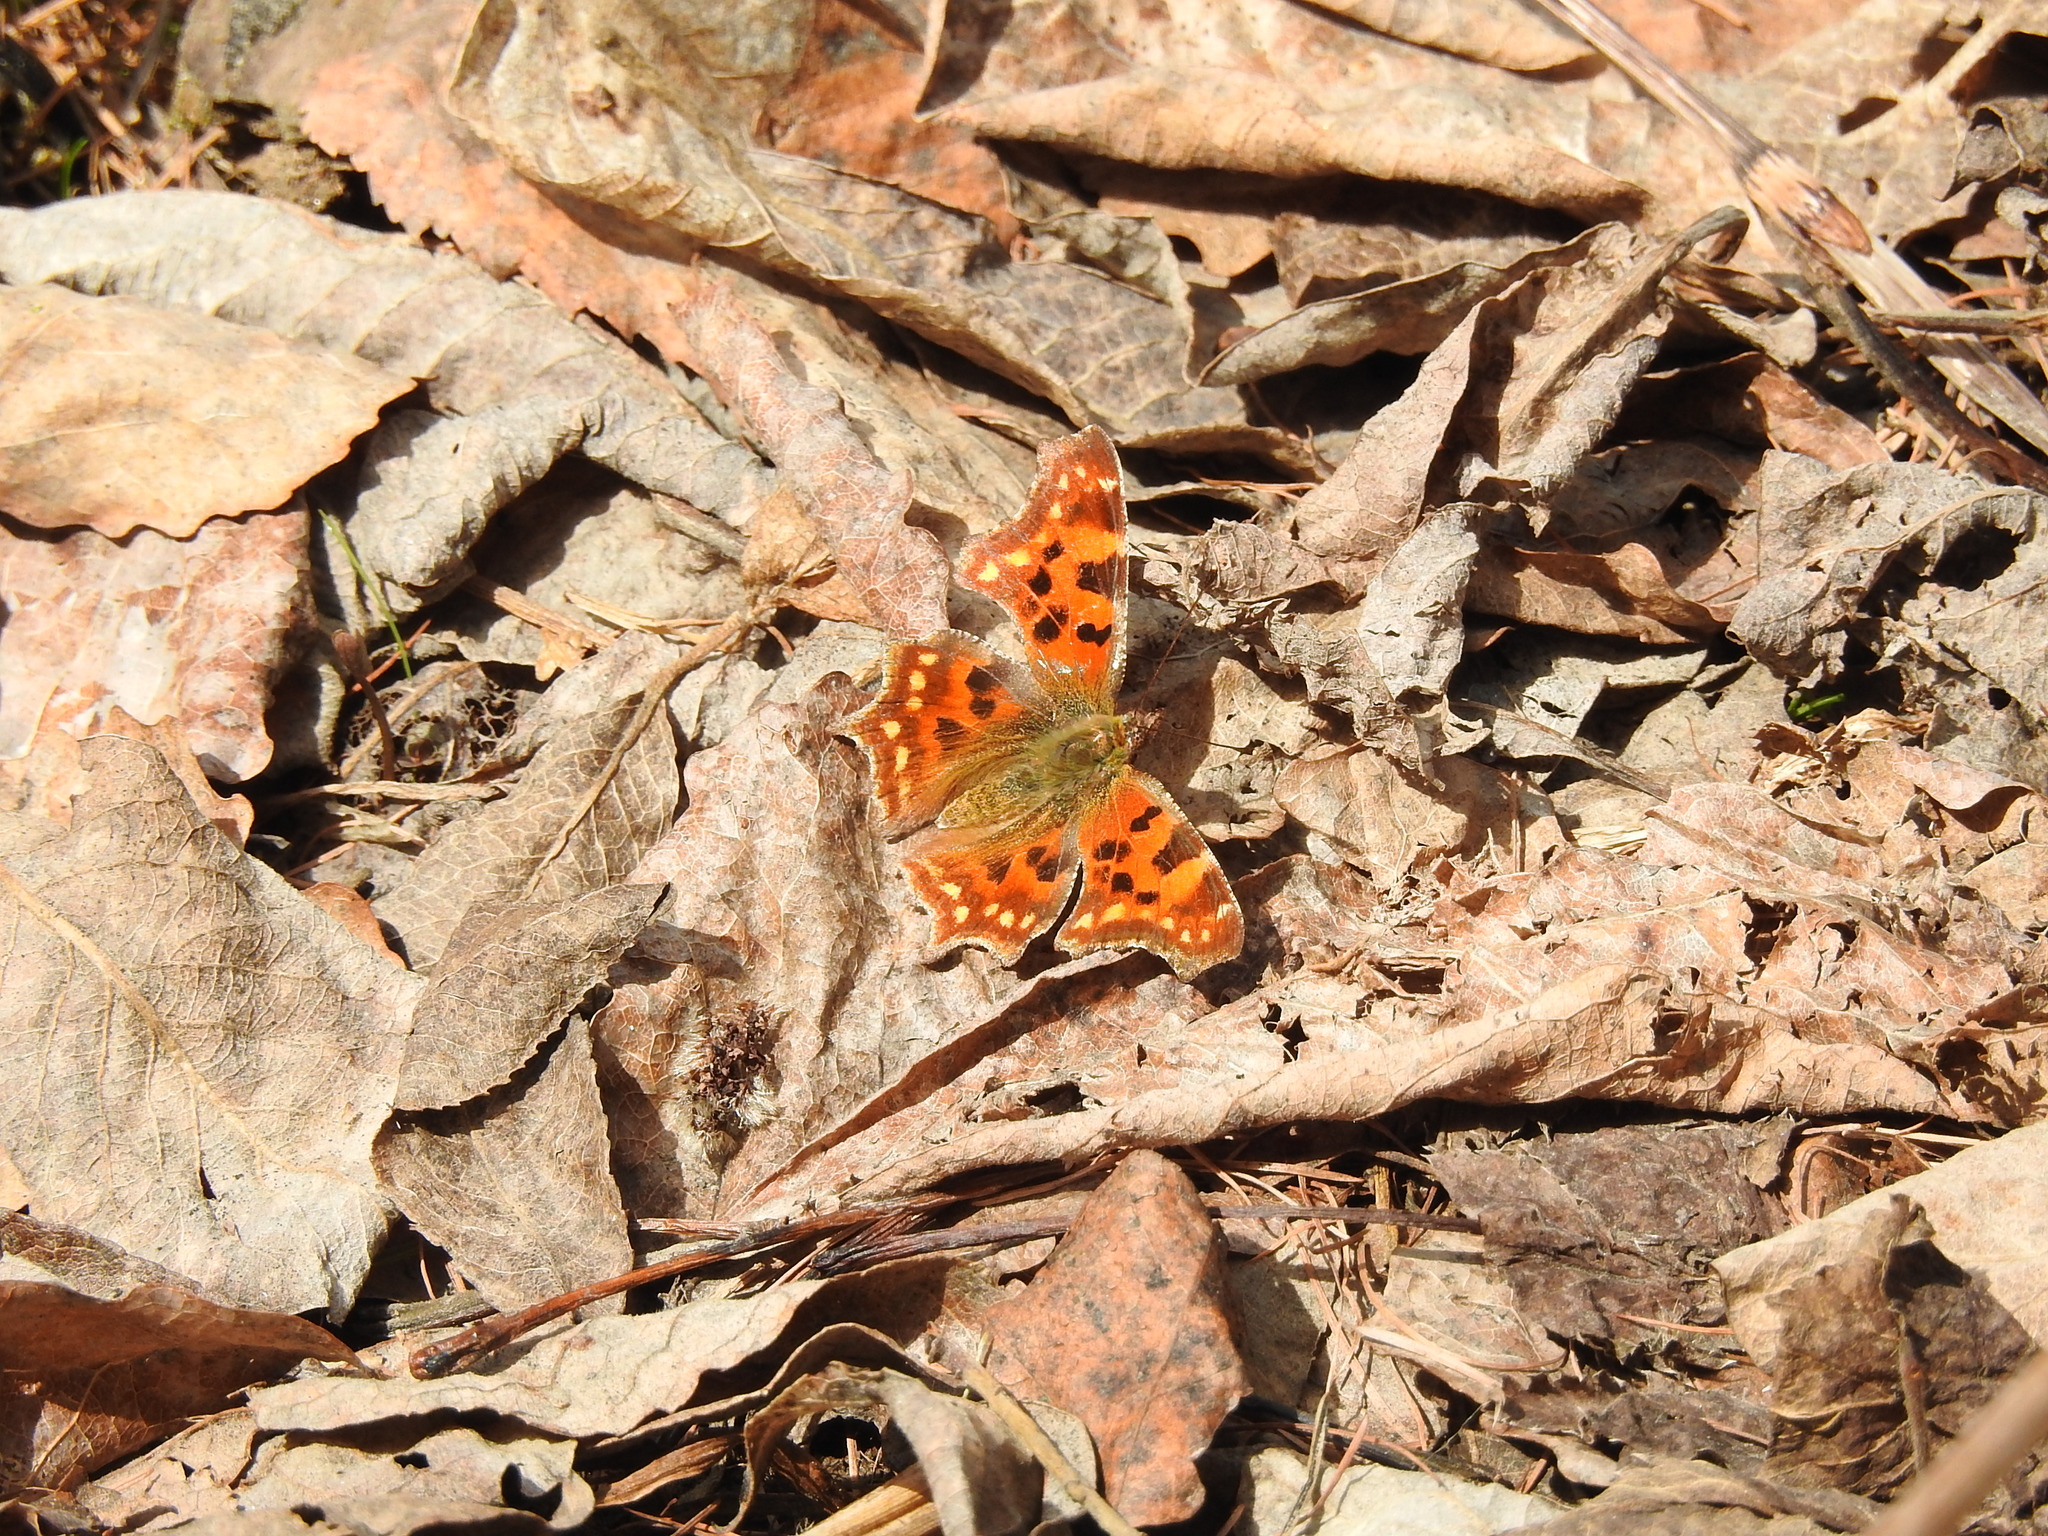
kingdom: Animalia
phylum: Arthropoda
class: Insecta
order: Lepidoptera
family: Nymphalidae
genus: Polygonia
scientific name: Polygonia c-album
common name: Comma
